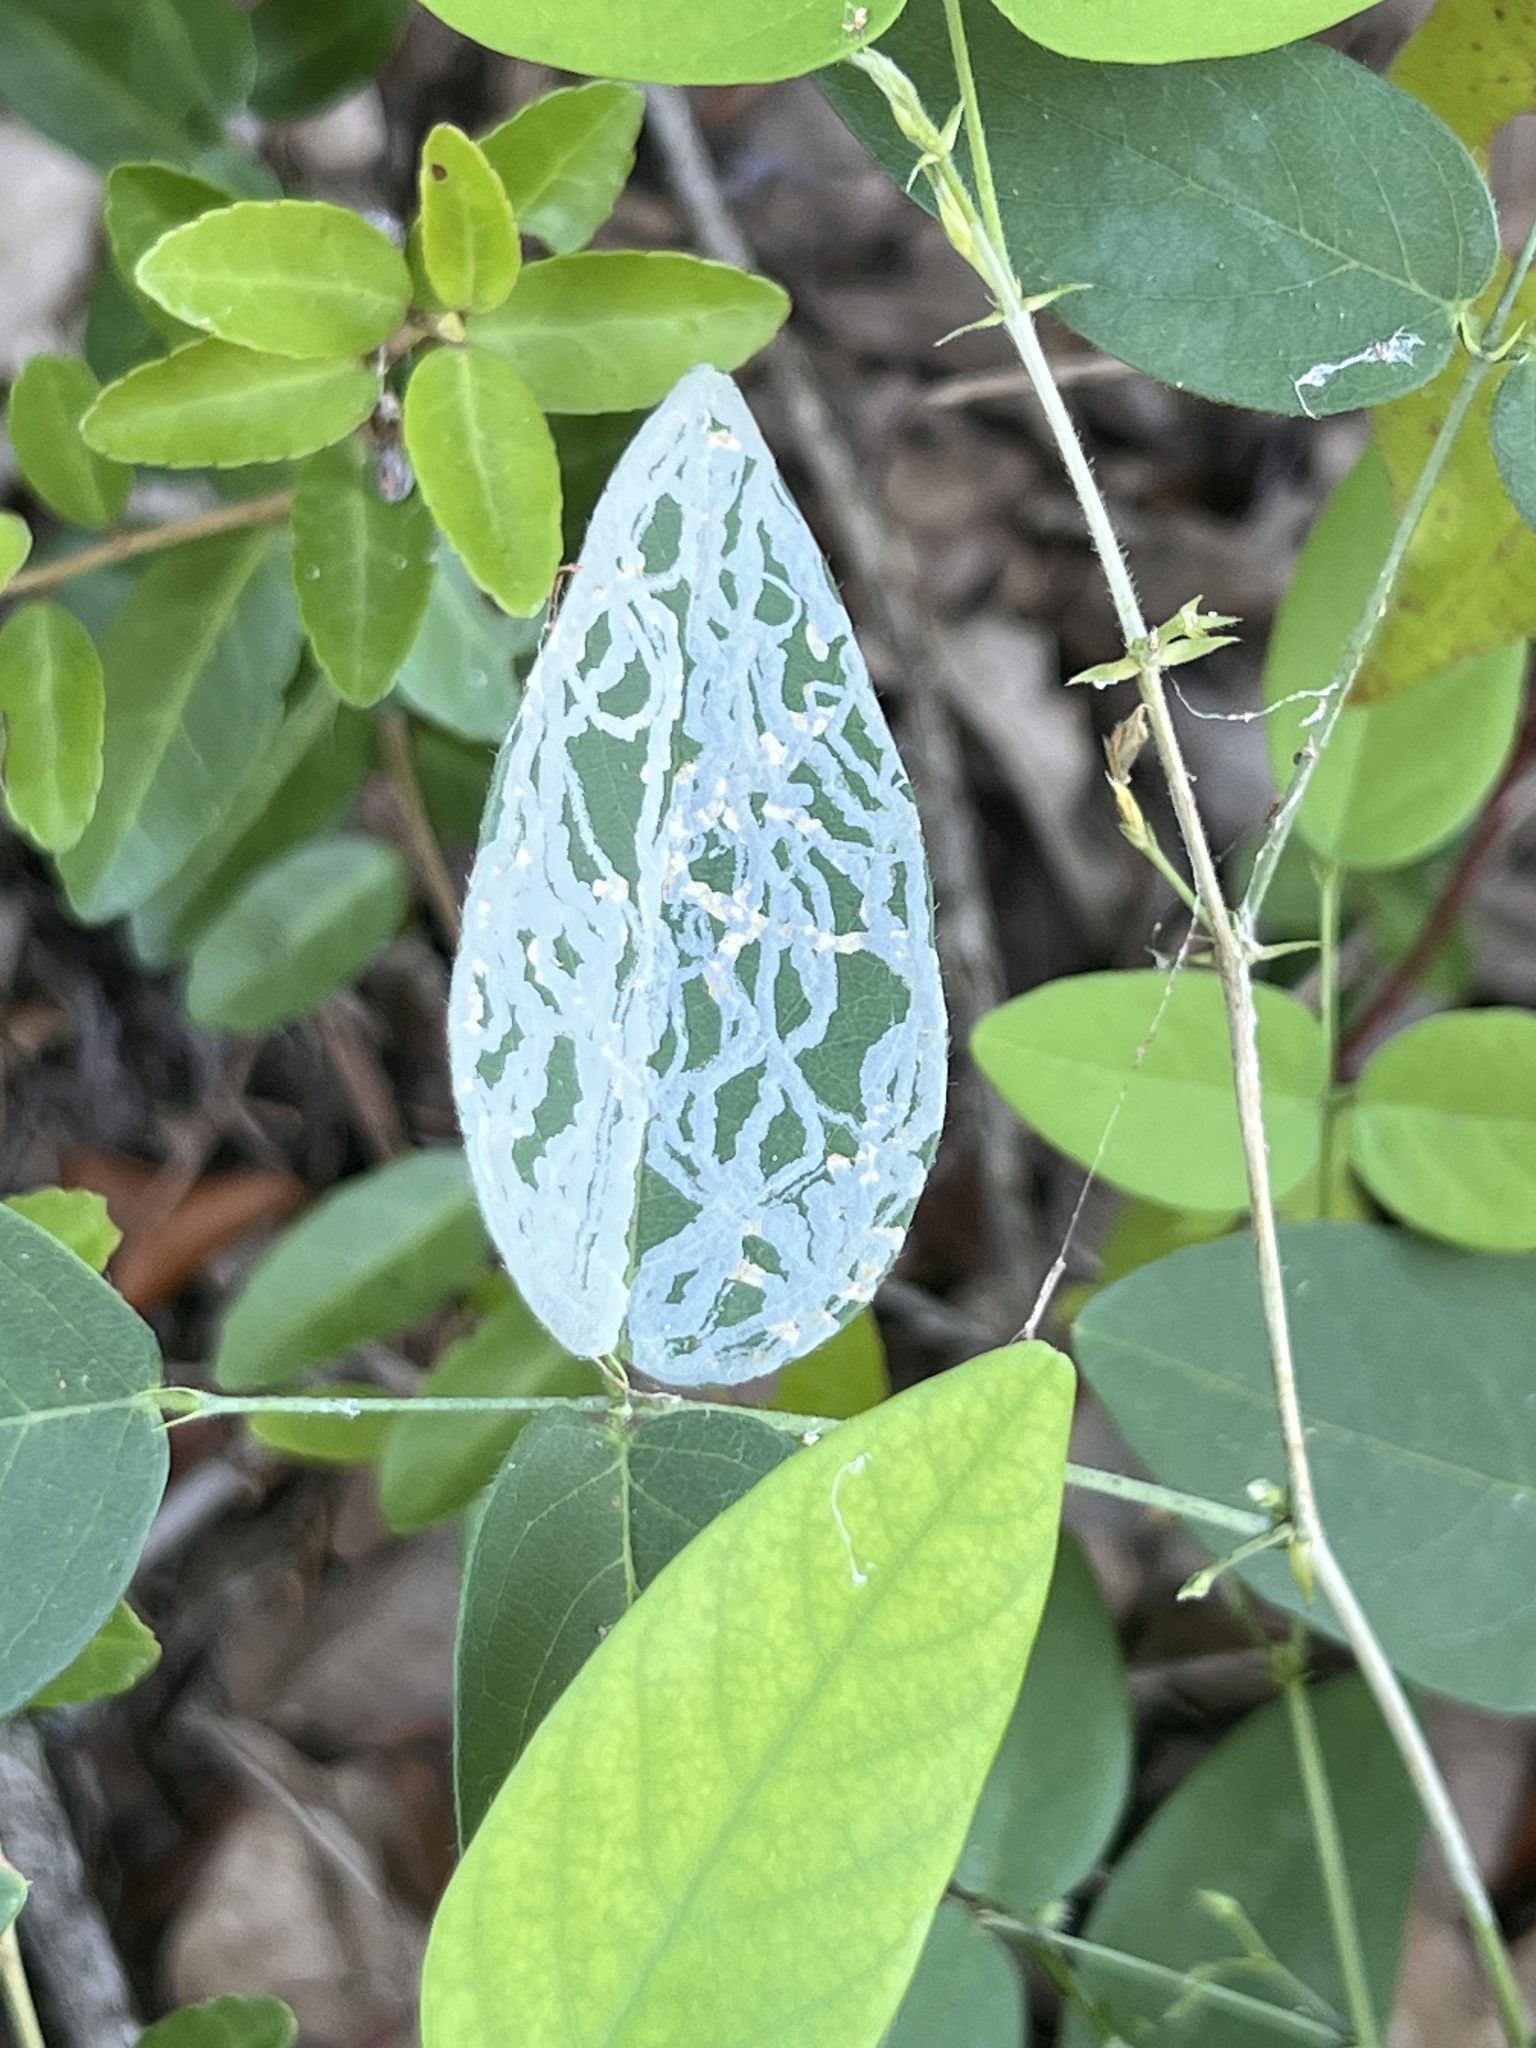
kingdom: Animalia
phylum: Arthropoda
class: Insecta
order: Lepidoptera
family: Gracillariidae
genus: Marmara
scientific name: Marmara smilacisella
